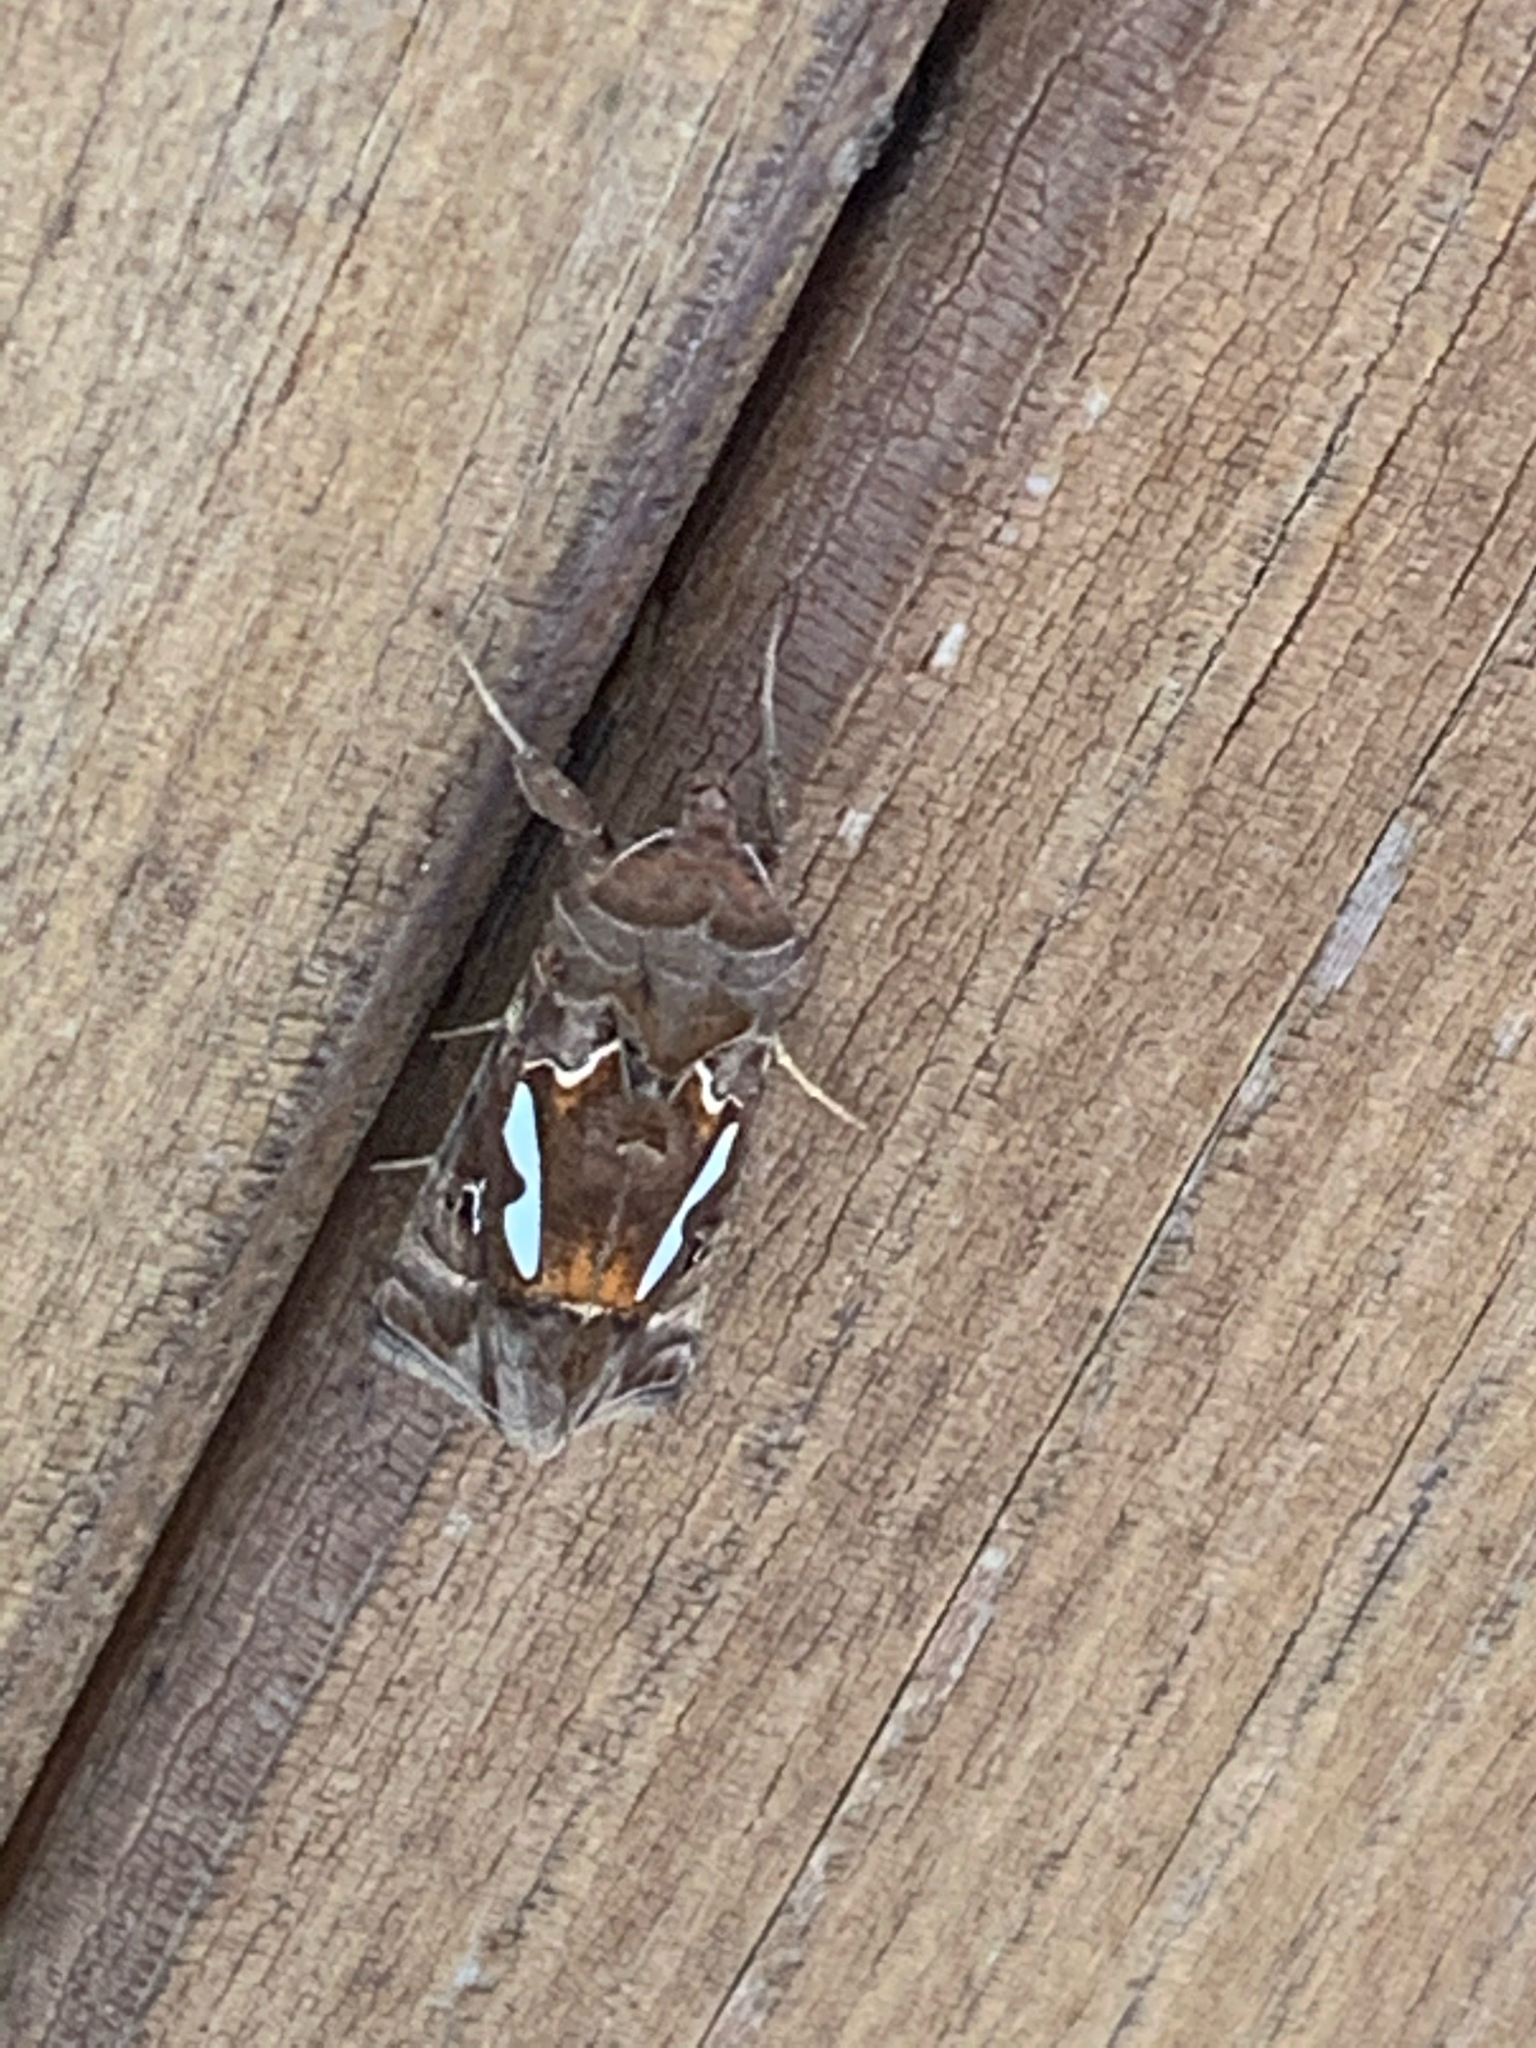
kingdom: Animalia
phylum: Arthropoda
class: Insecta
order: Lepidoptera
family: Noctuidae
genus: Megalographa
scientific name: Megalographa biloba
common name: Cutworm
